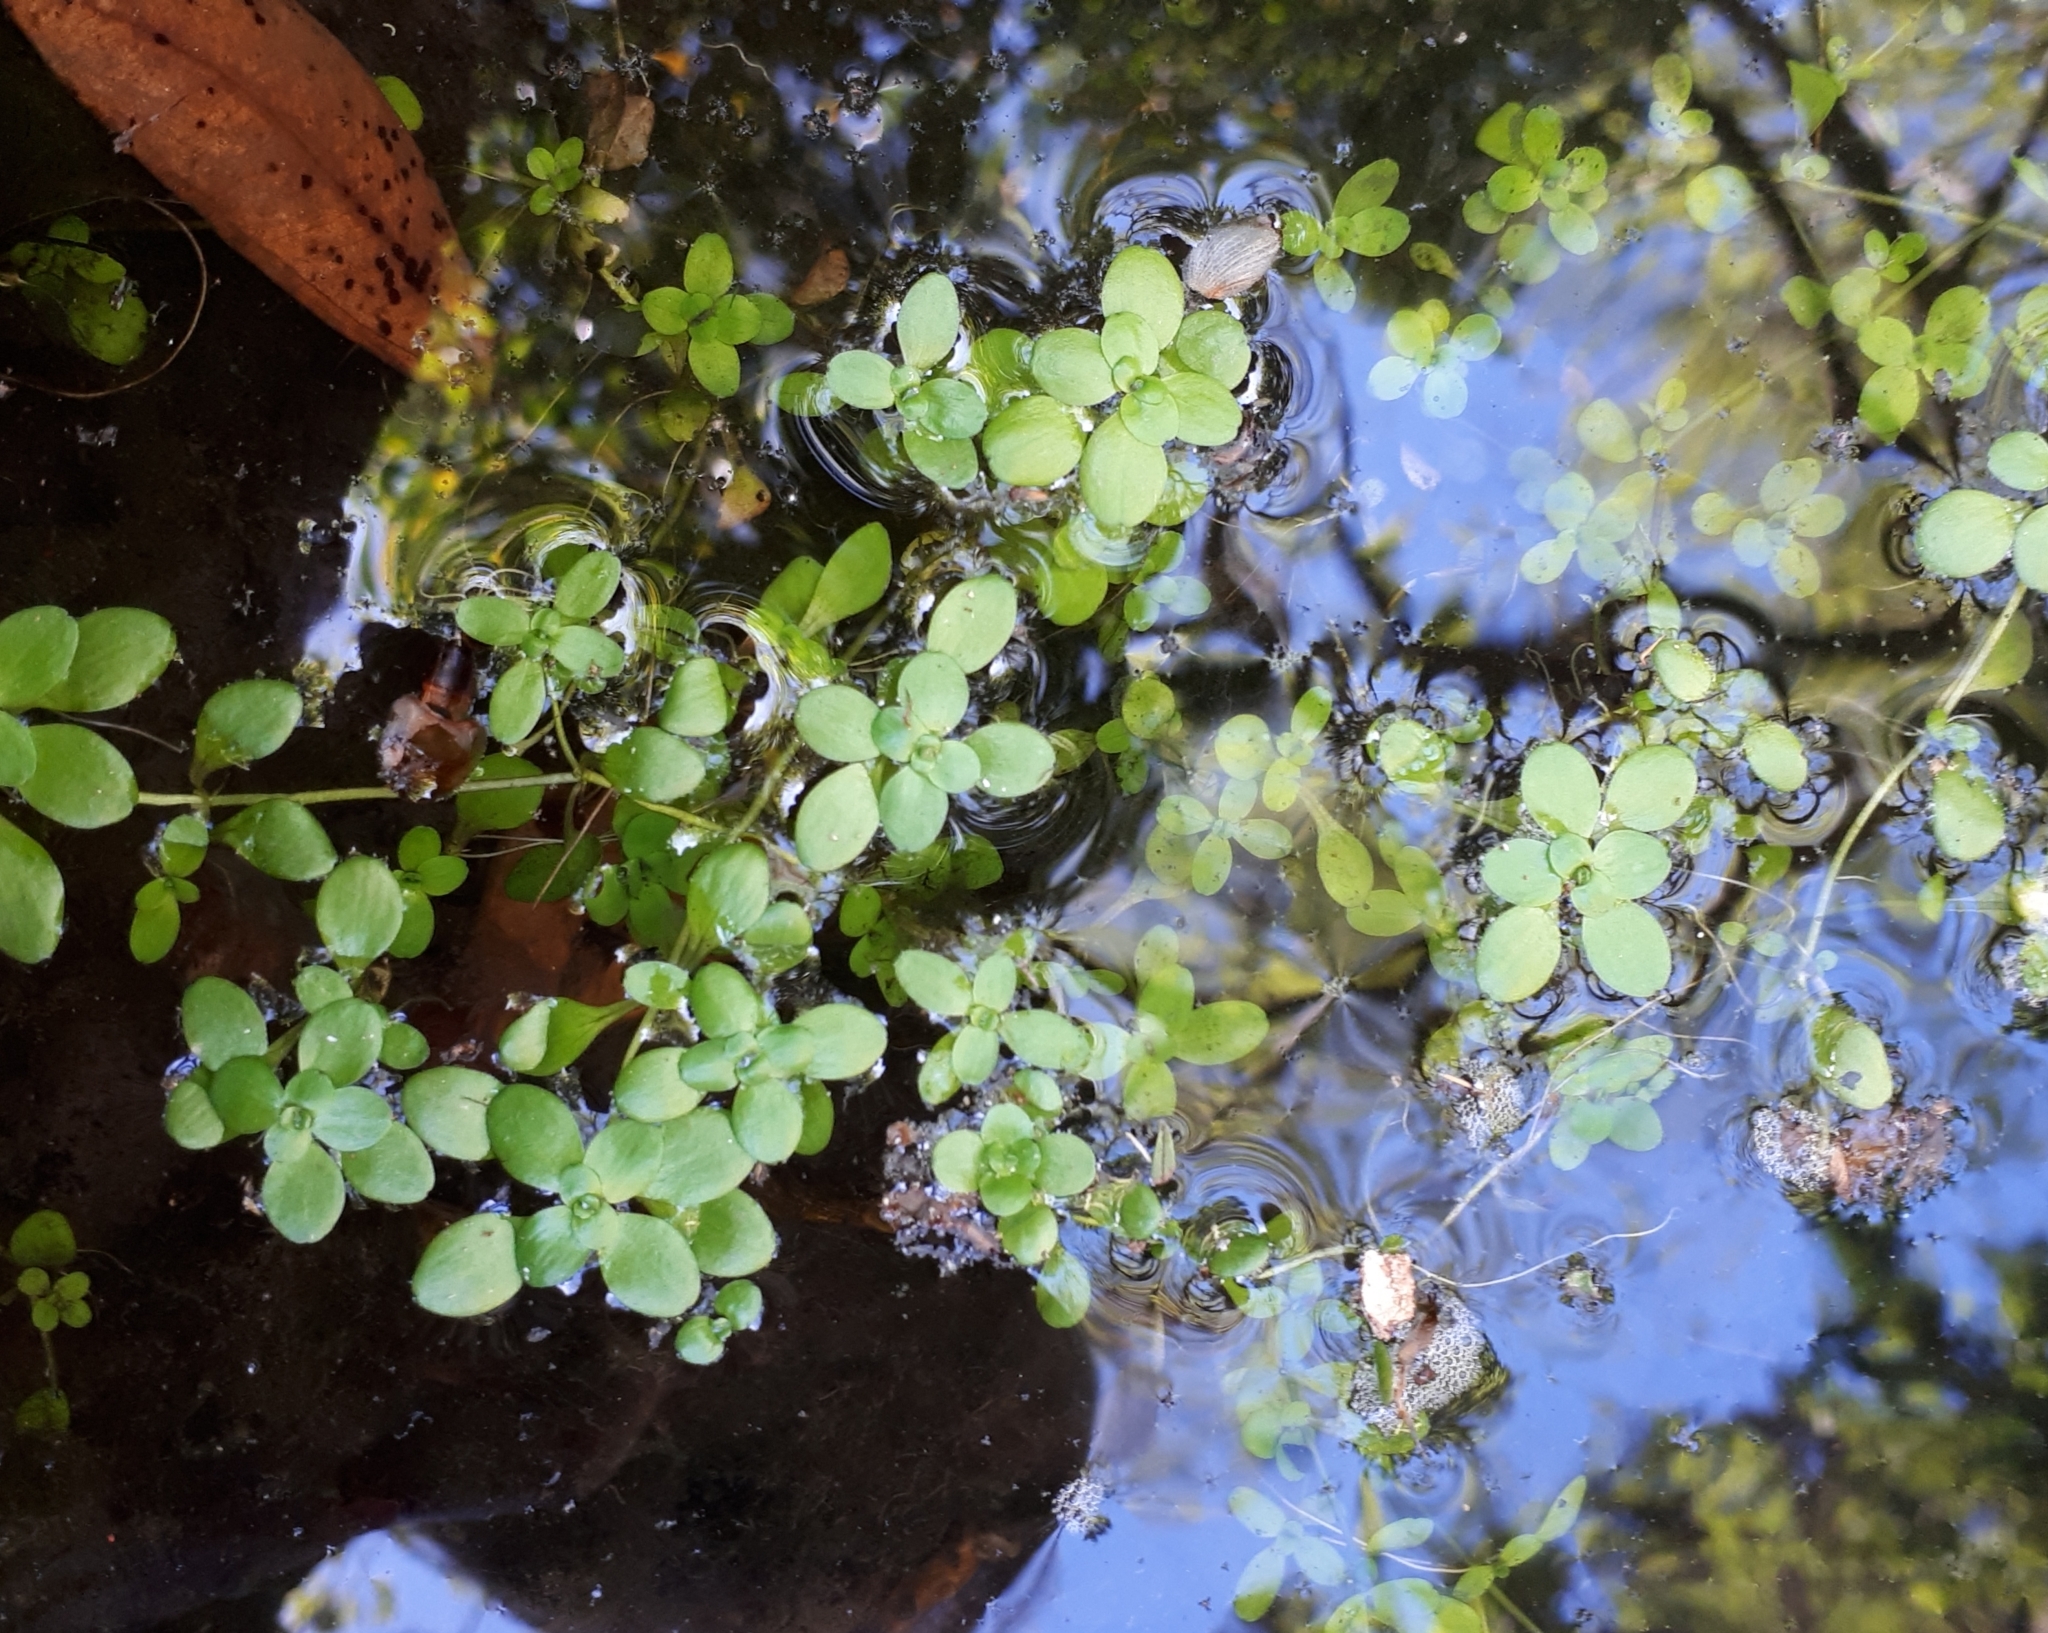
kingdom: Plantae
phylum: Tracheophyta
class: Magnoliopsida
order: Lamiales
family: Plantaginaceae
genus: Callitriche
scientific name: Callitriche stagnalis
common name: Common water-starwort
